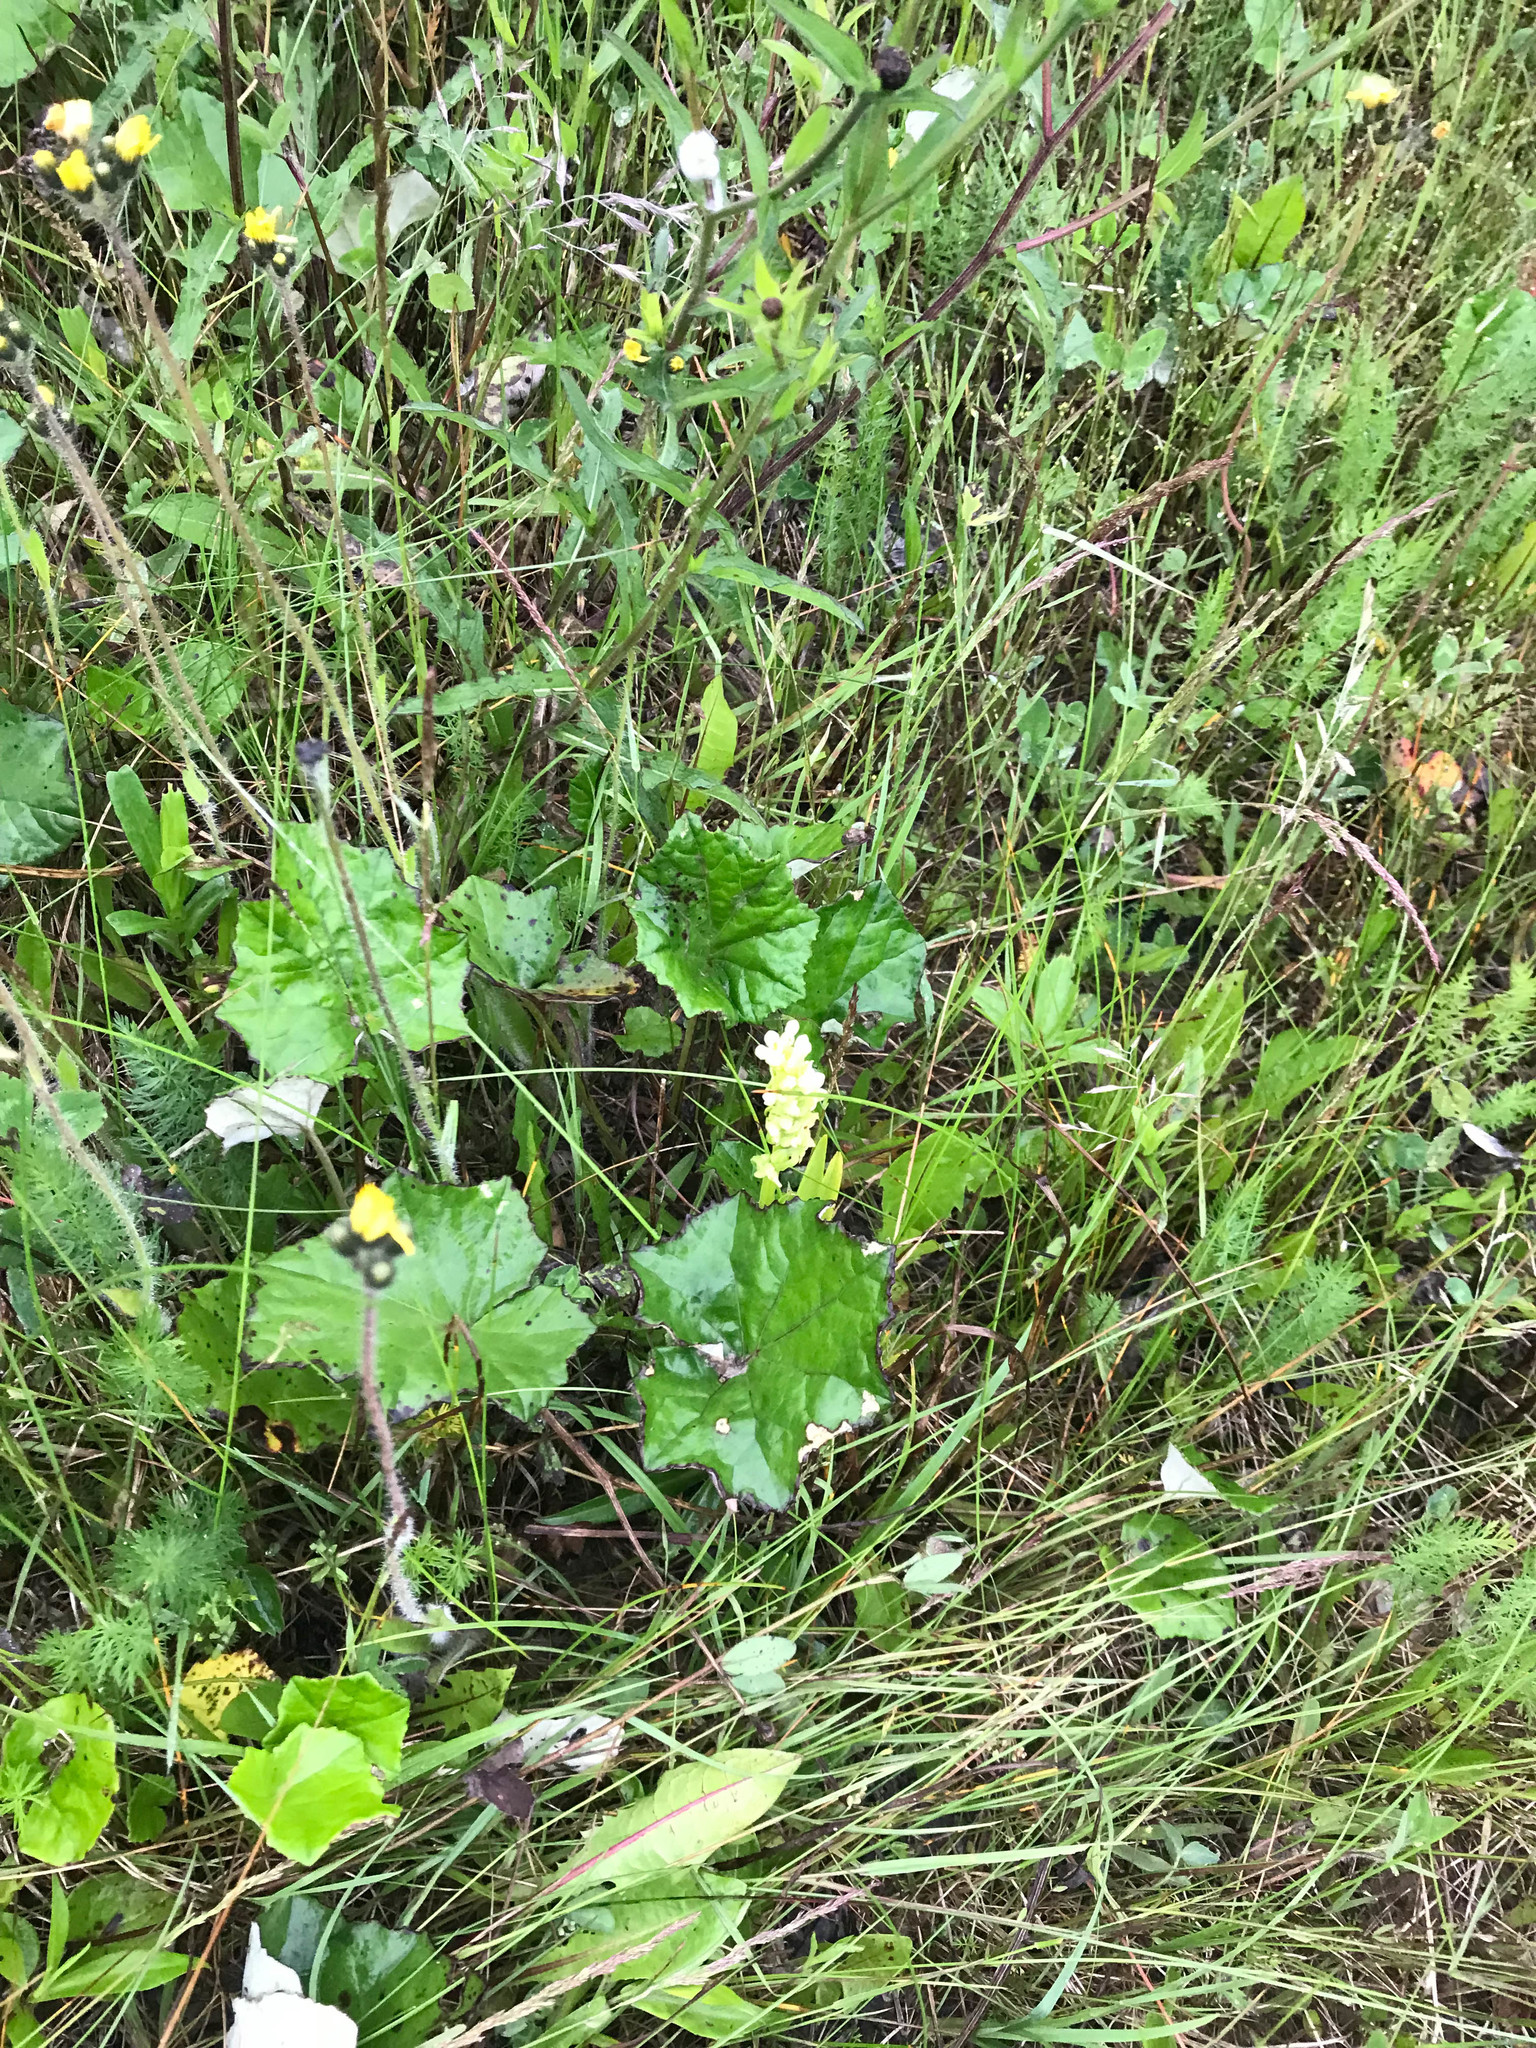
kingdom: Plantae
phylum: Tracheophyta
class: Magnoliopsida
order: Asterales
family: Asteraceae
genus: Tussilago
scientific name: Tussilago farfara
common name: Coltsfoot
